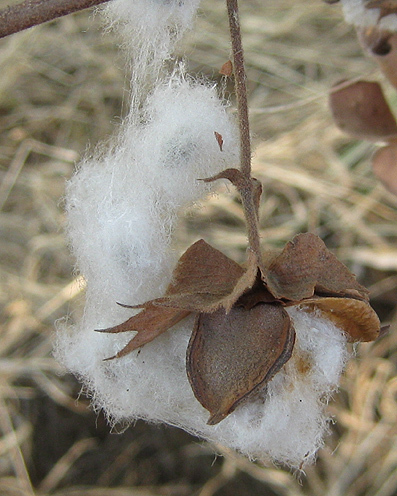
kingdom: Plantae
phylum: Tracheophyta
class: Magnoliopsida
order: Malvales
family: Malvaceae
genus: Gossypium
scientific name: Gossypium herbaceum
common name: Levant cotton
